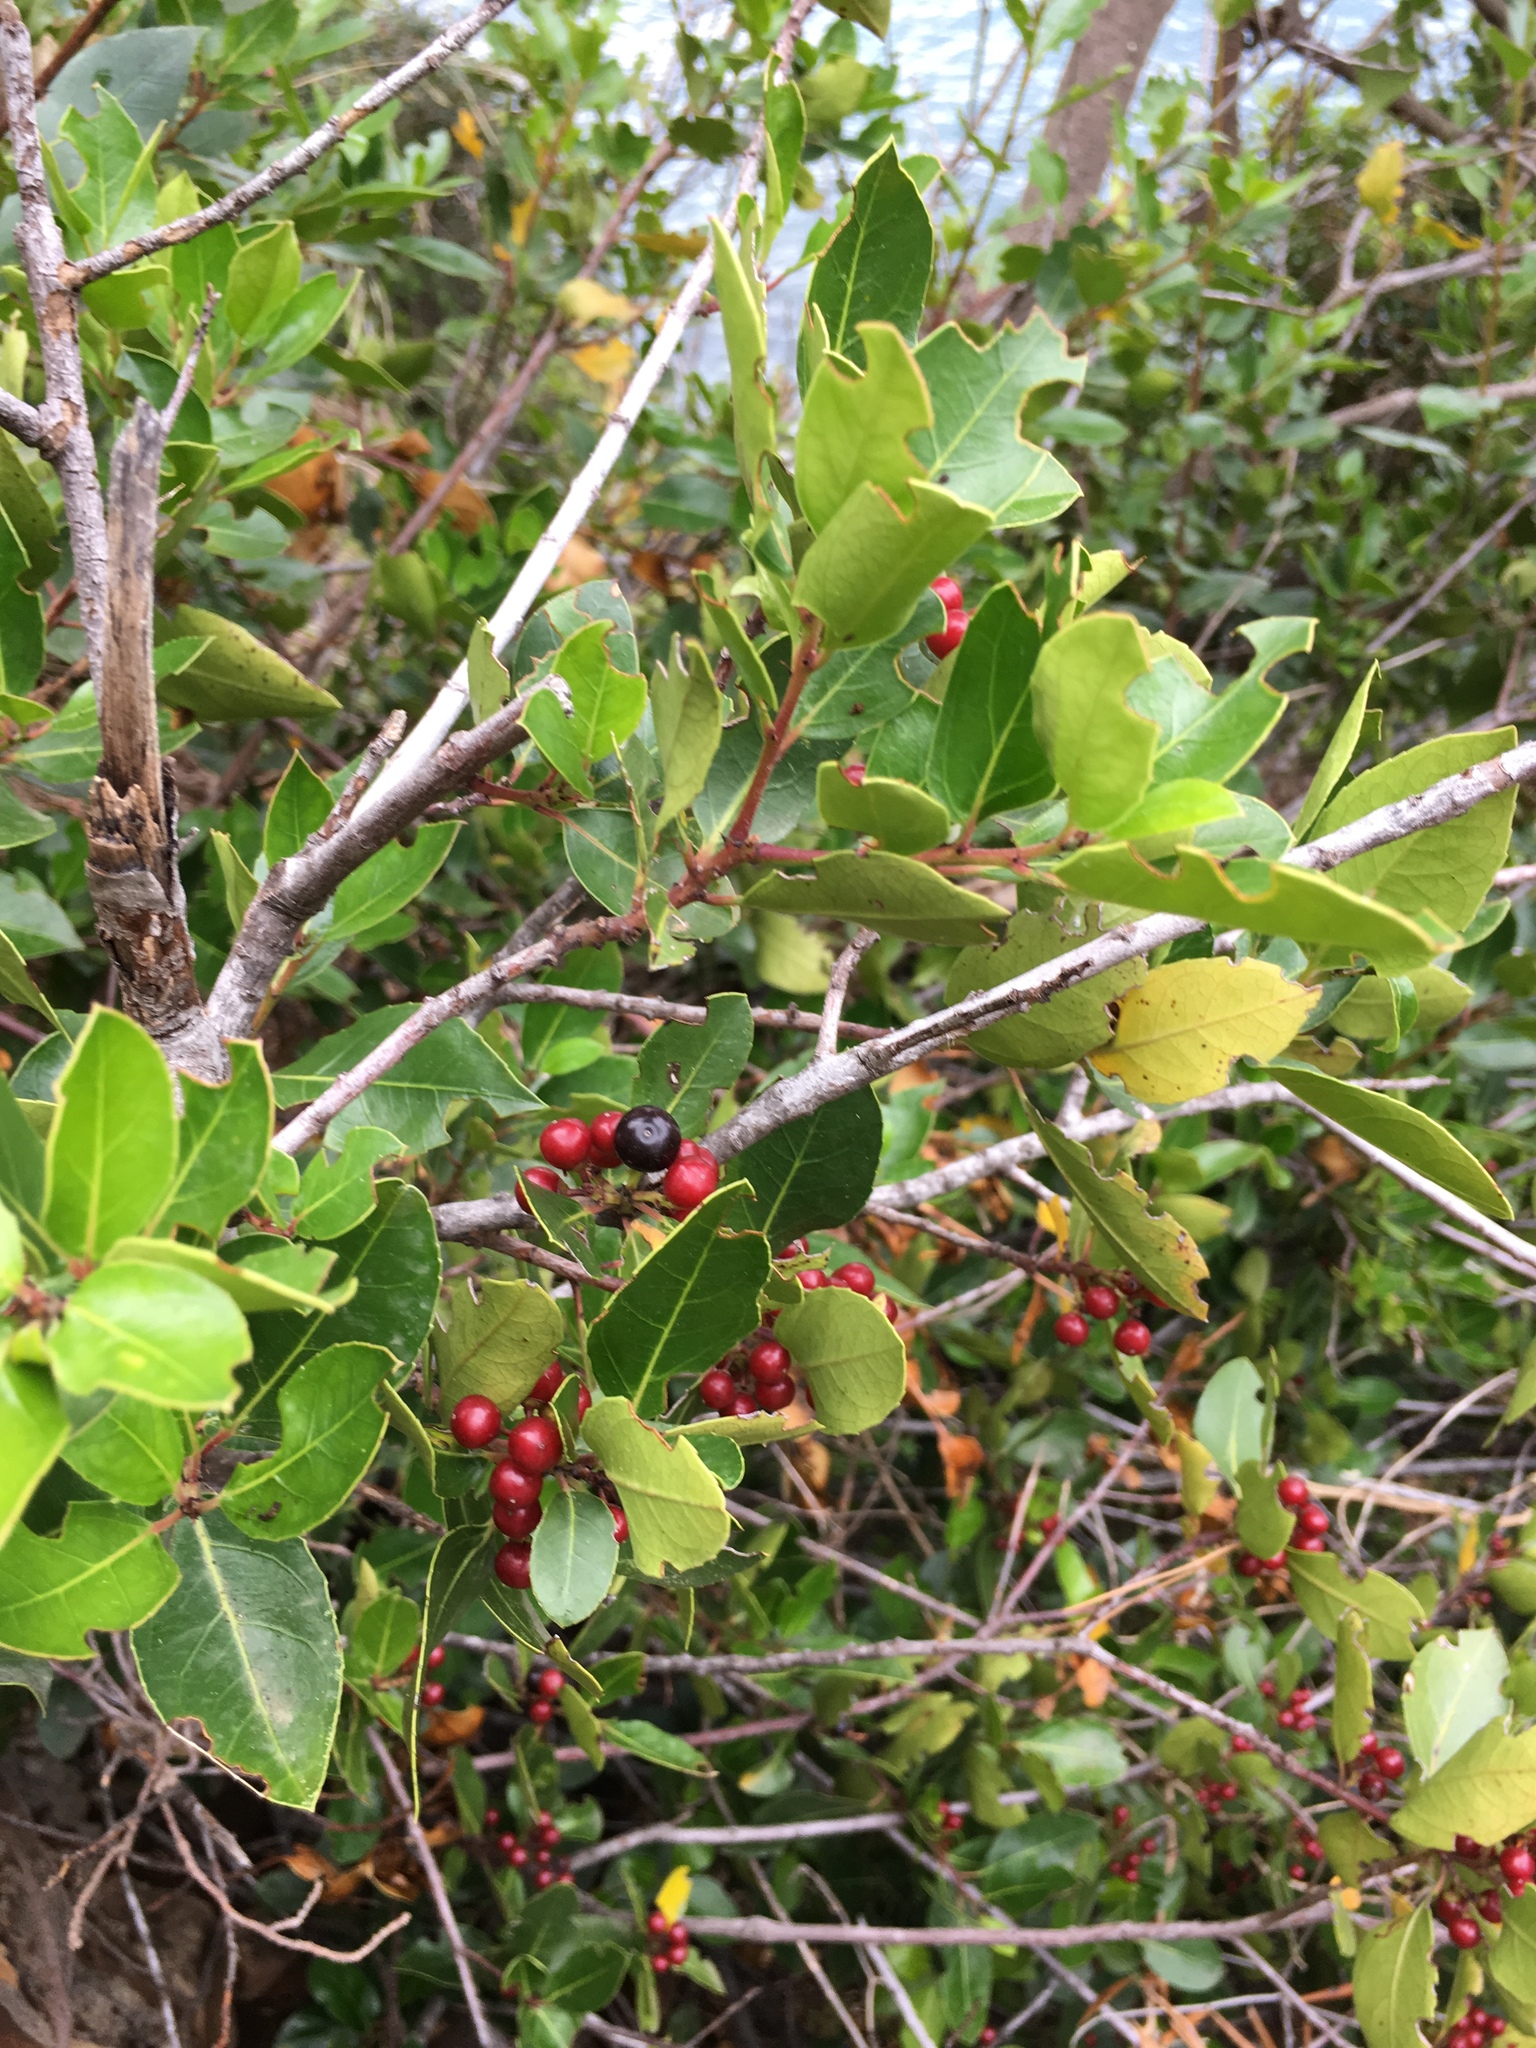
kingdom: Plantae
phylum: Tracheophyta
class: Magnoliopsida
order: Rosales
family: Rhamnaceae
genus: Rhamnus
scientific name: Rhamnus alaternus
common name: Mediterranean buckthorn
